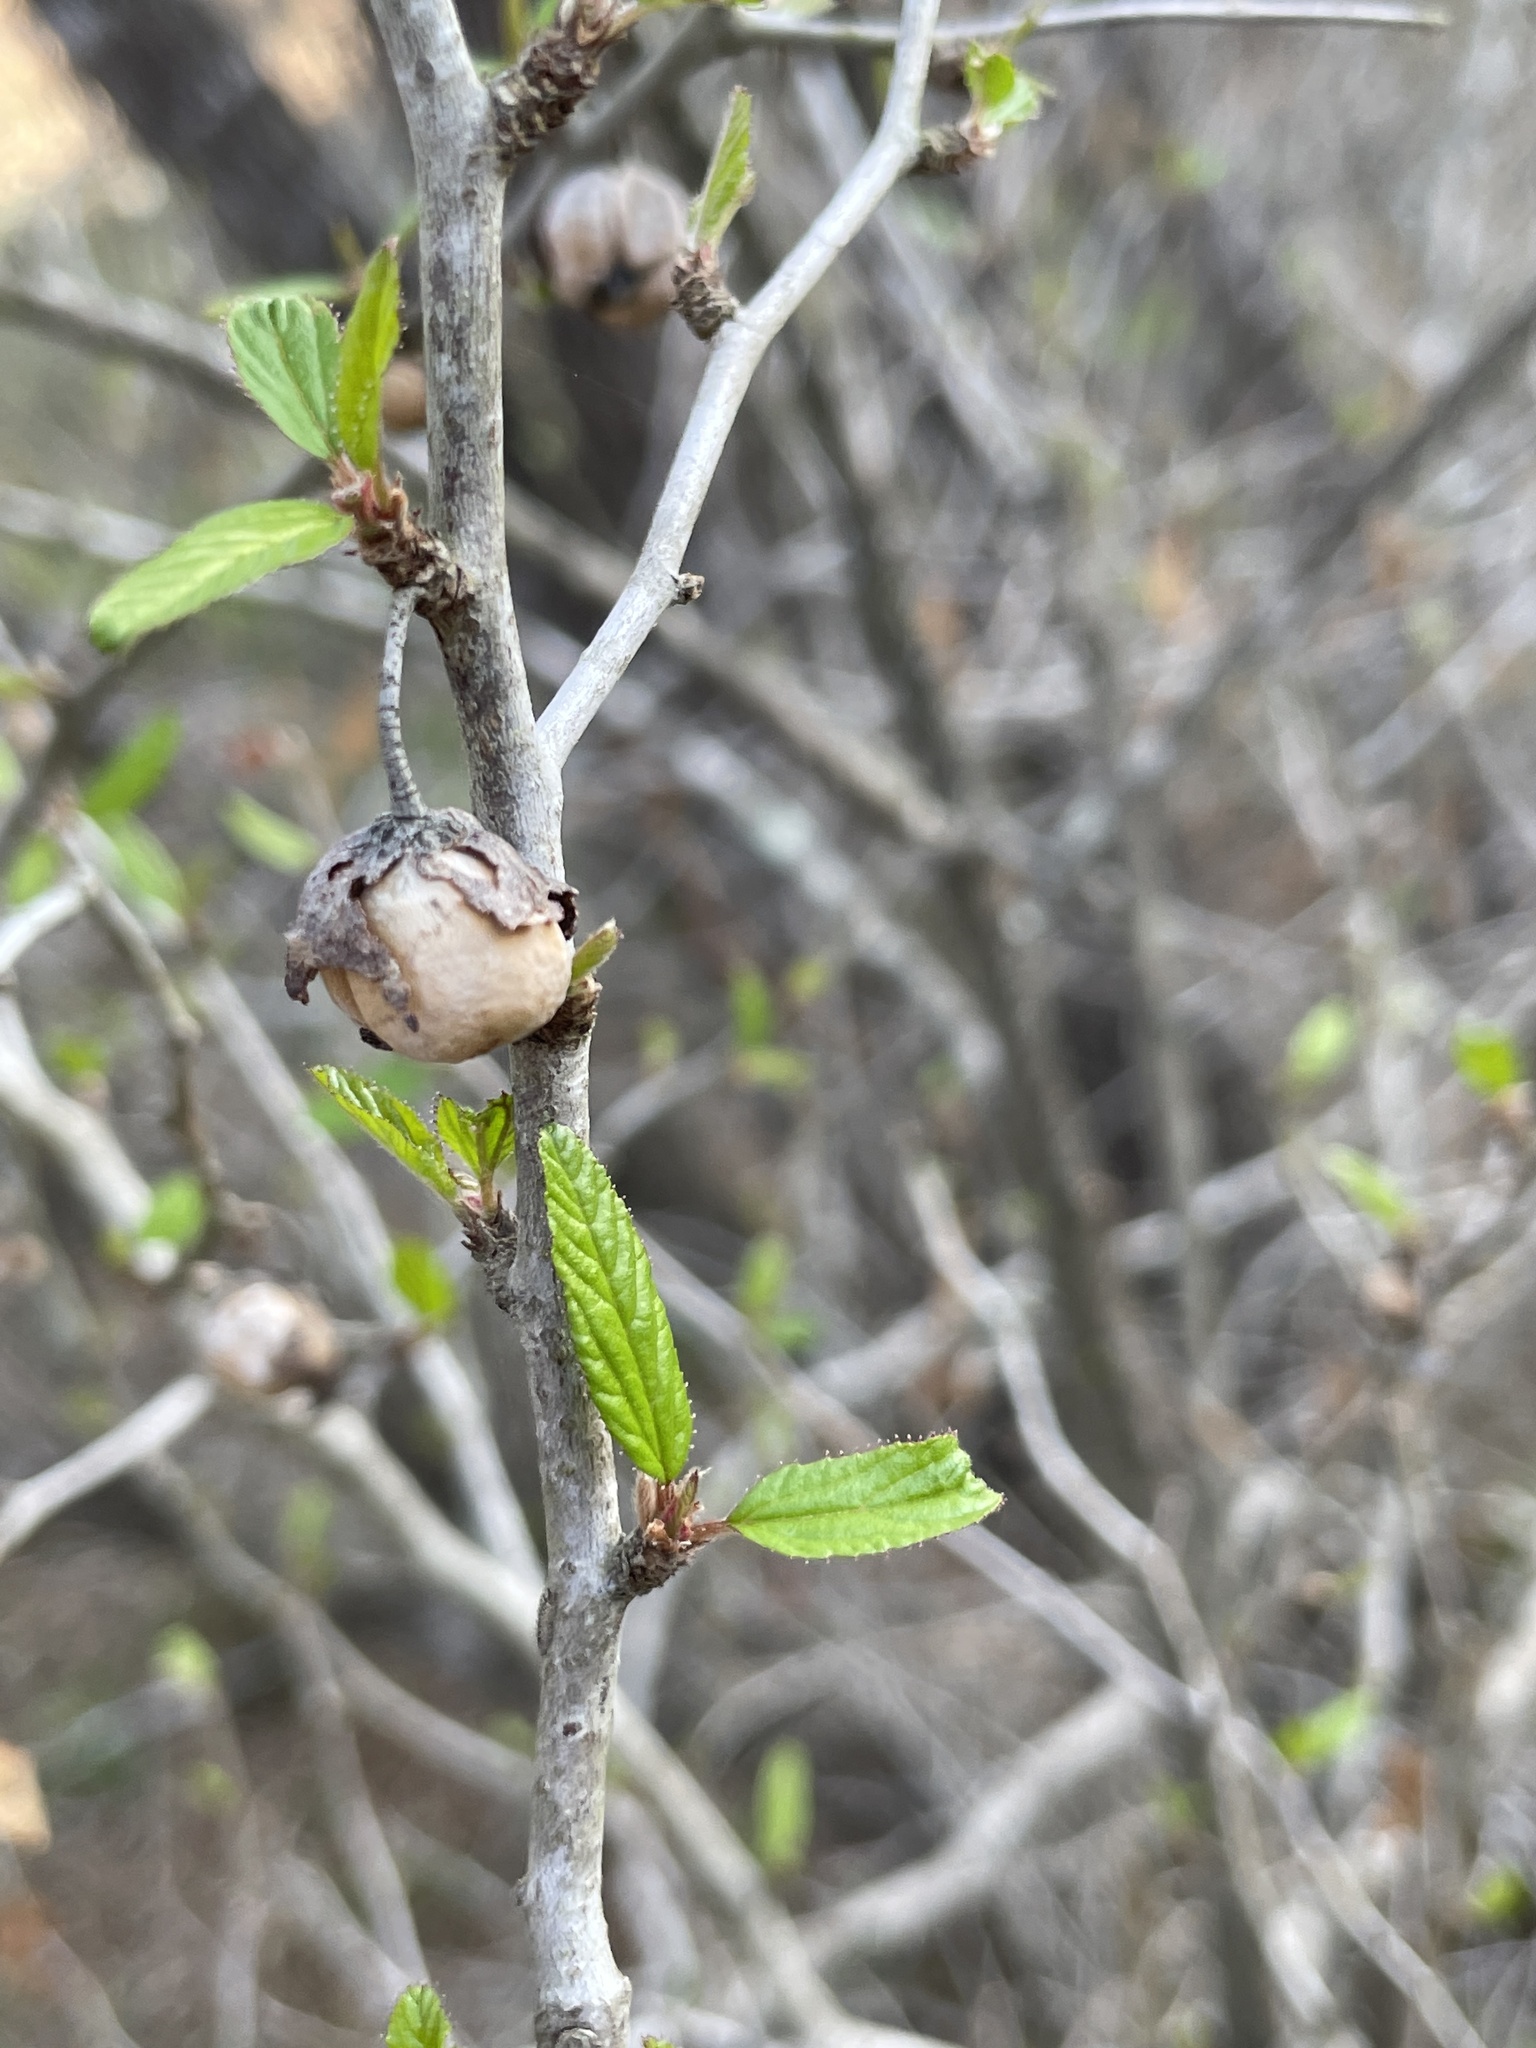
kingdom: Plantae
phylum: Tracheophyta
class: Magnoliopsida
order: Rosales
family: Rhamnaceae
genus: Colubrina
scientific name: Colubrina texensis
